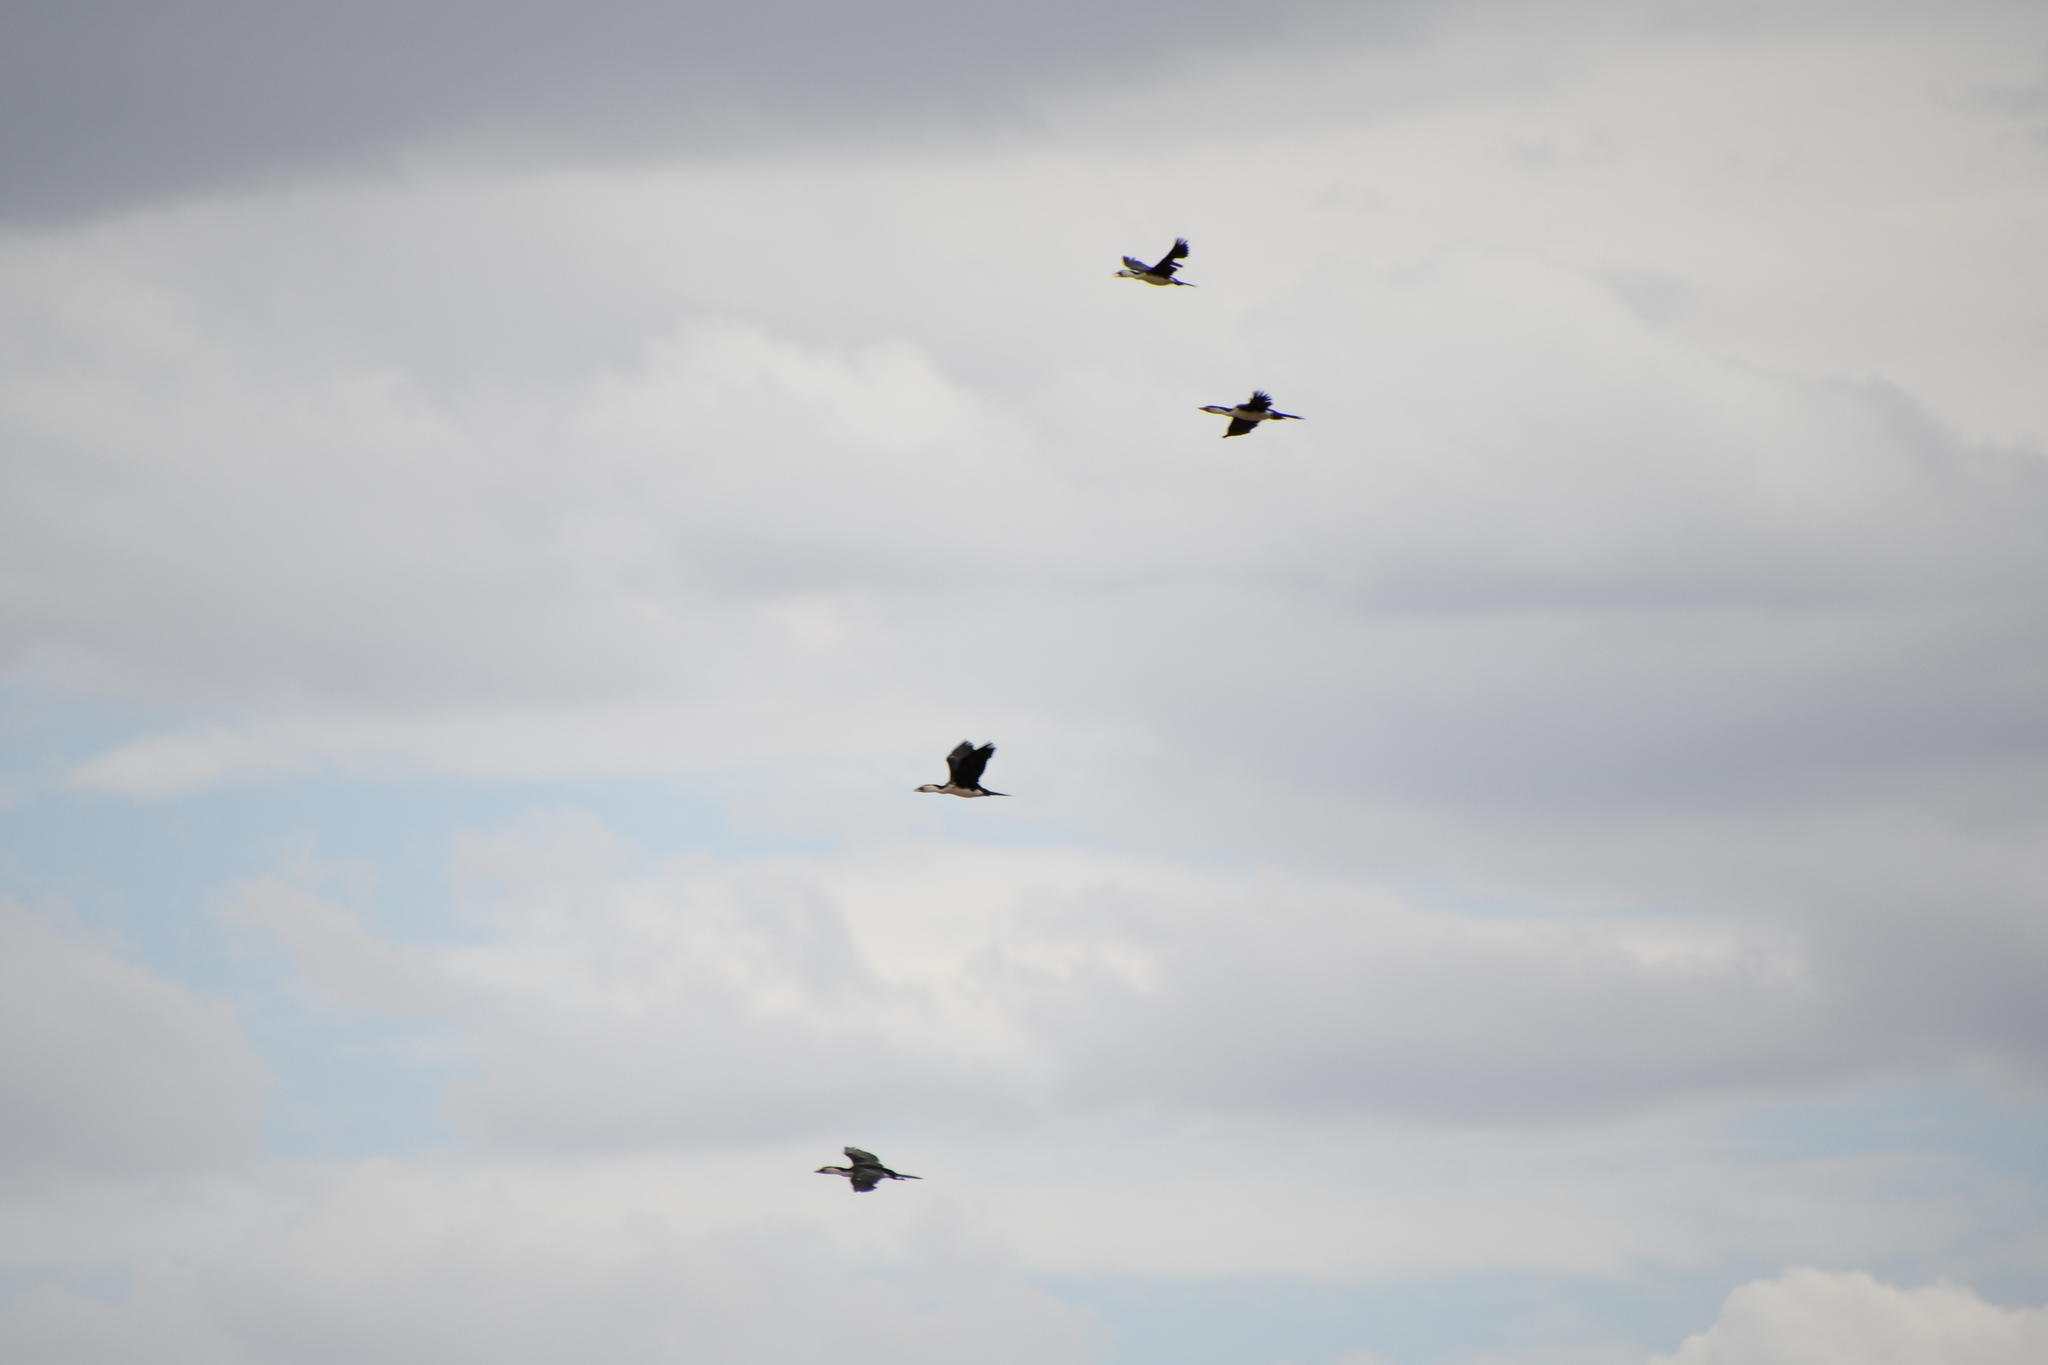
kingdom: Animalia
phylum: Chordata
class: Aves
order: Suliformes
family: Phalacrocoracidae
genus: Microcarbo
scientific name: Microcarbo melanoleucos
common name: Little pied cormorant
